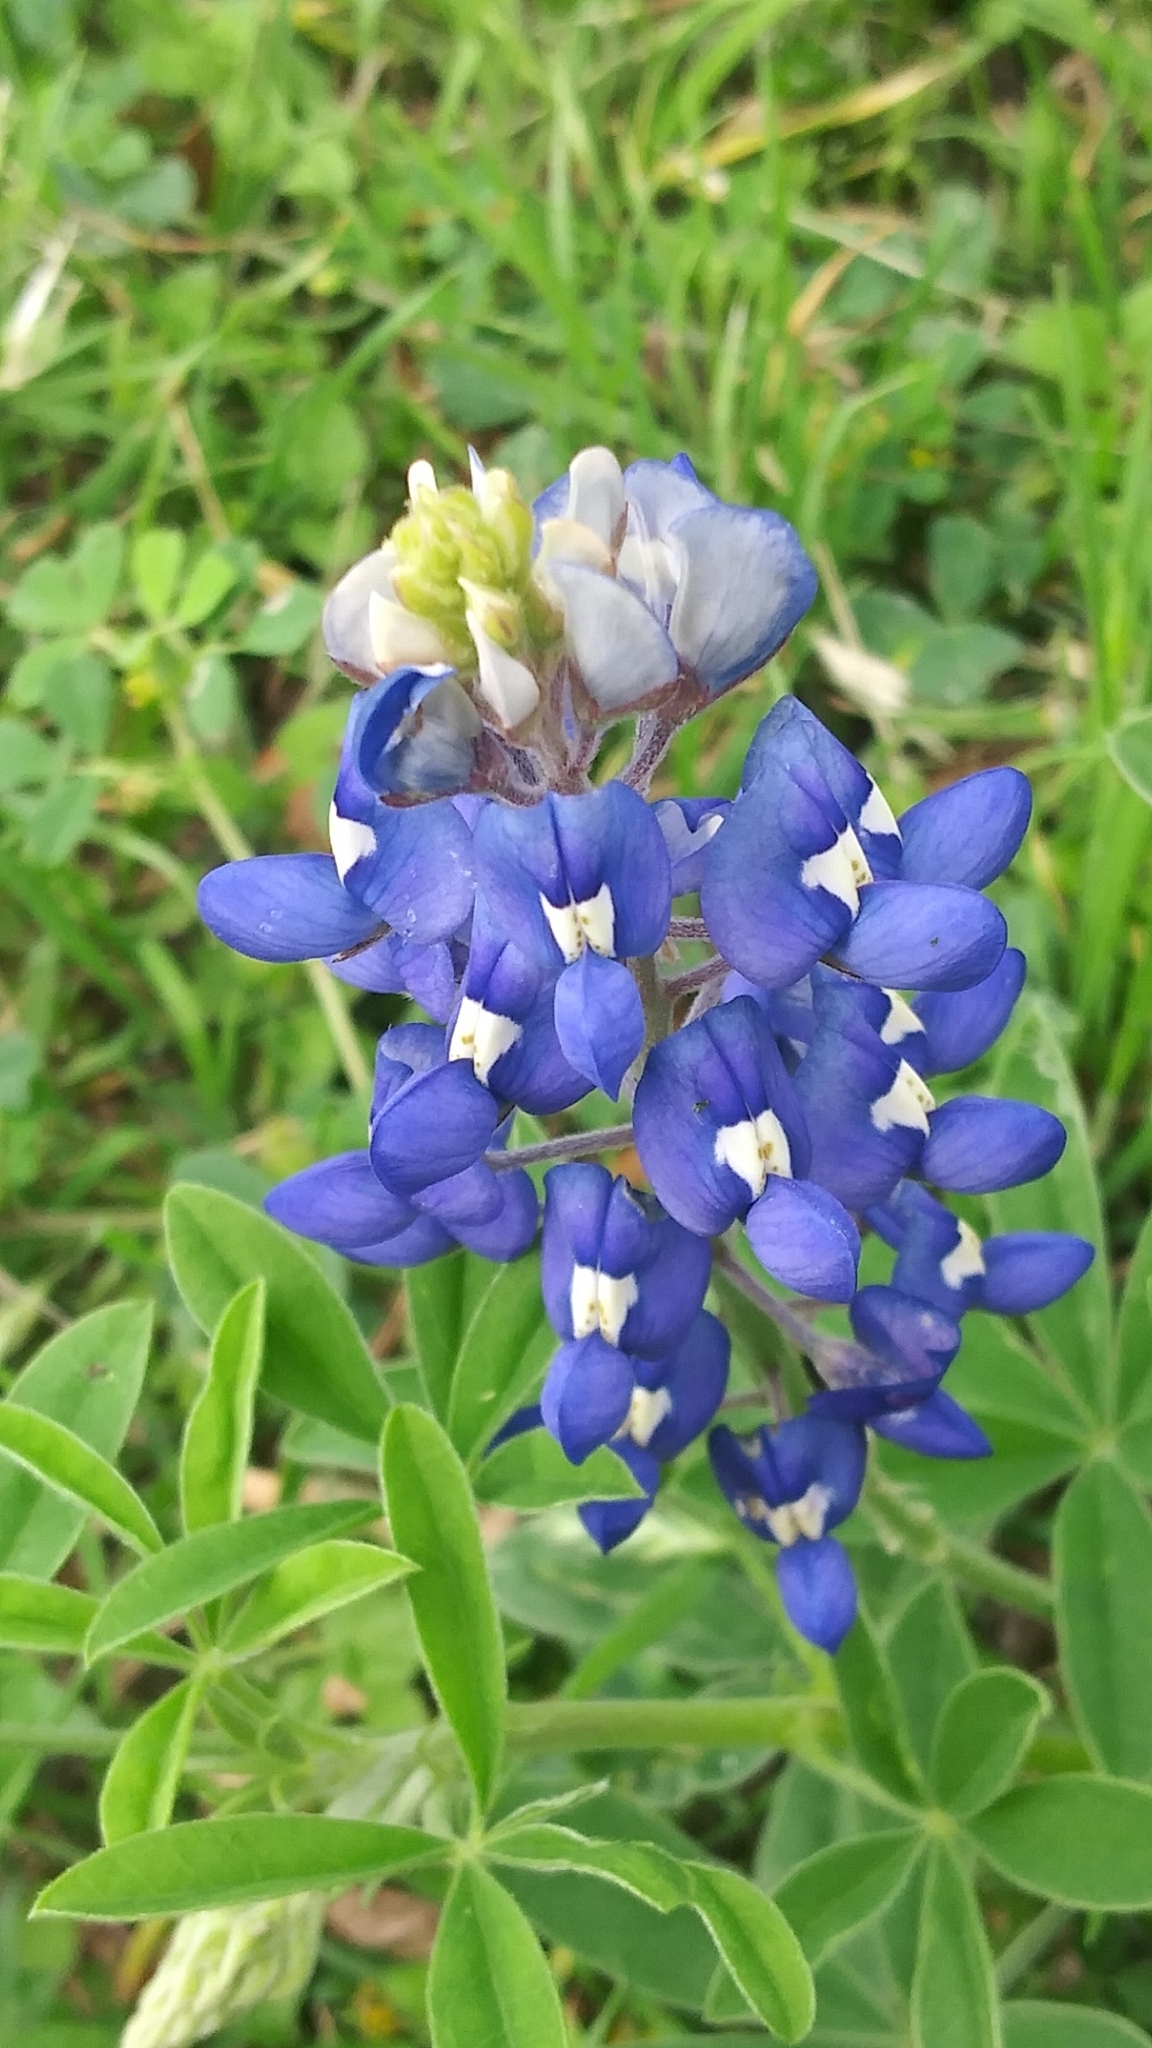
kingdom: Plantae
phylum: Tracheophyta
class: Magnoliopsida
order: Fabales
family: Fabaceae
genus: Lupinus
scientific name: Lupinus texensis
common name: Texas bluebonnet
